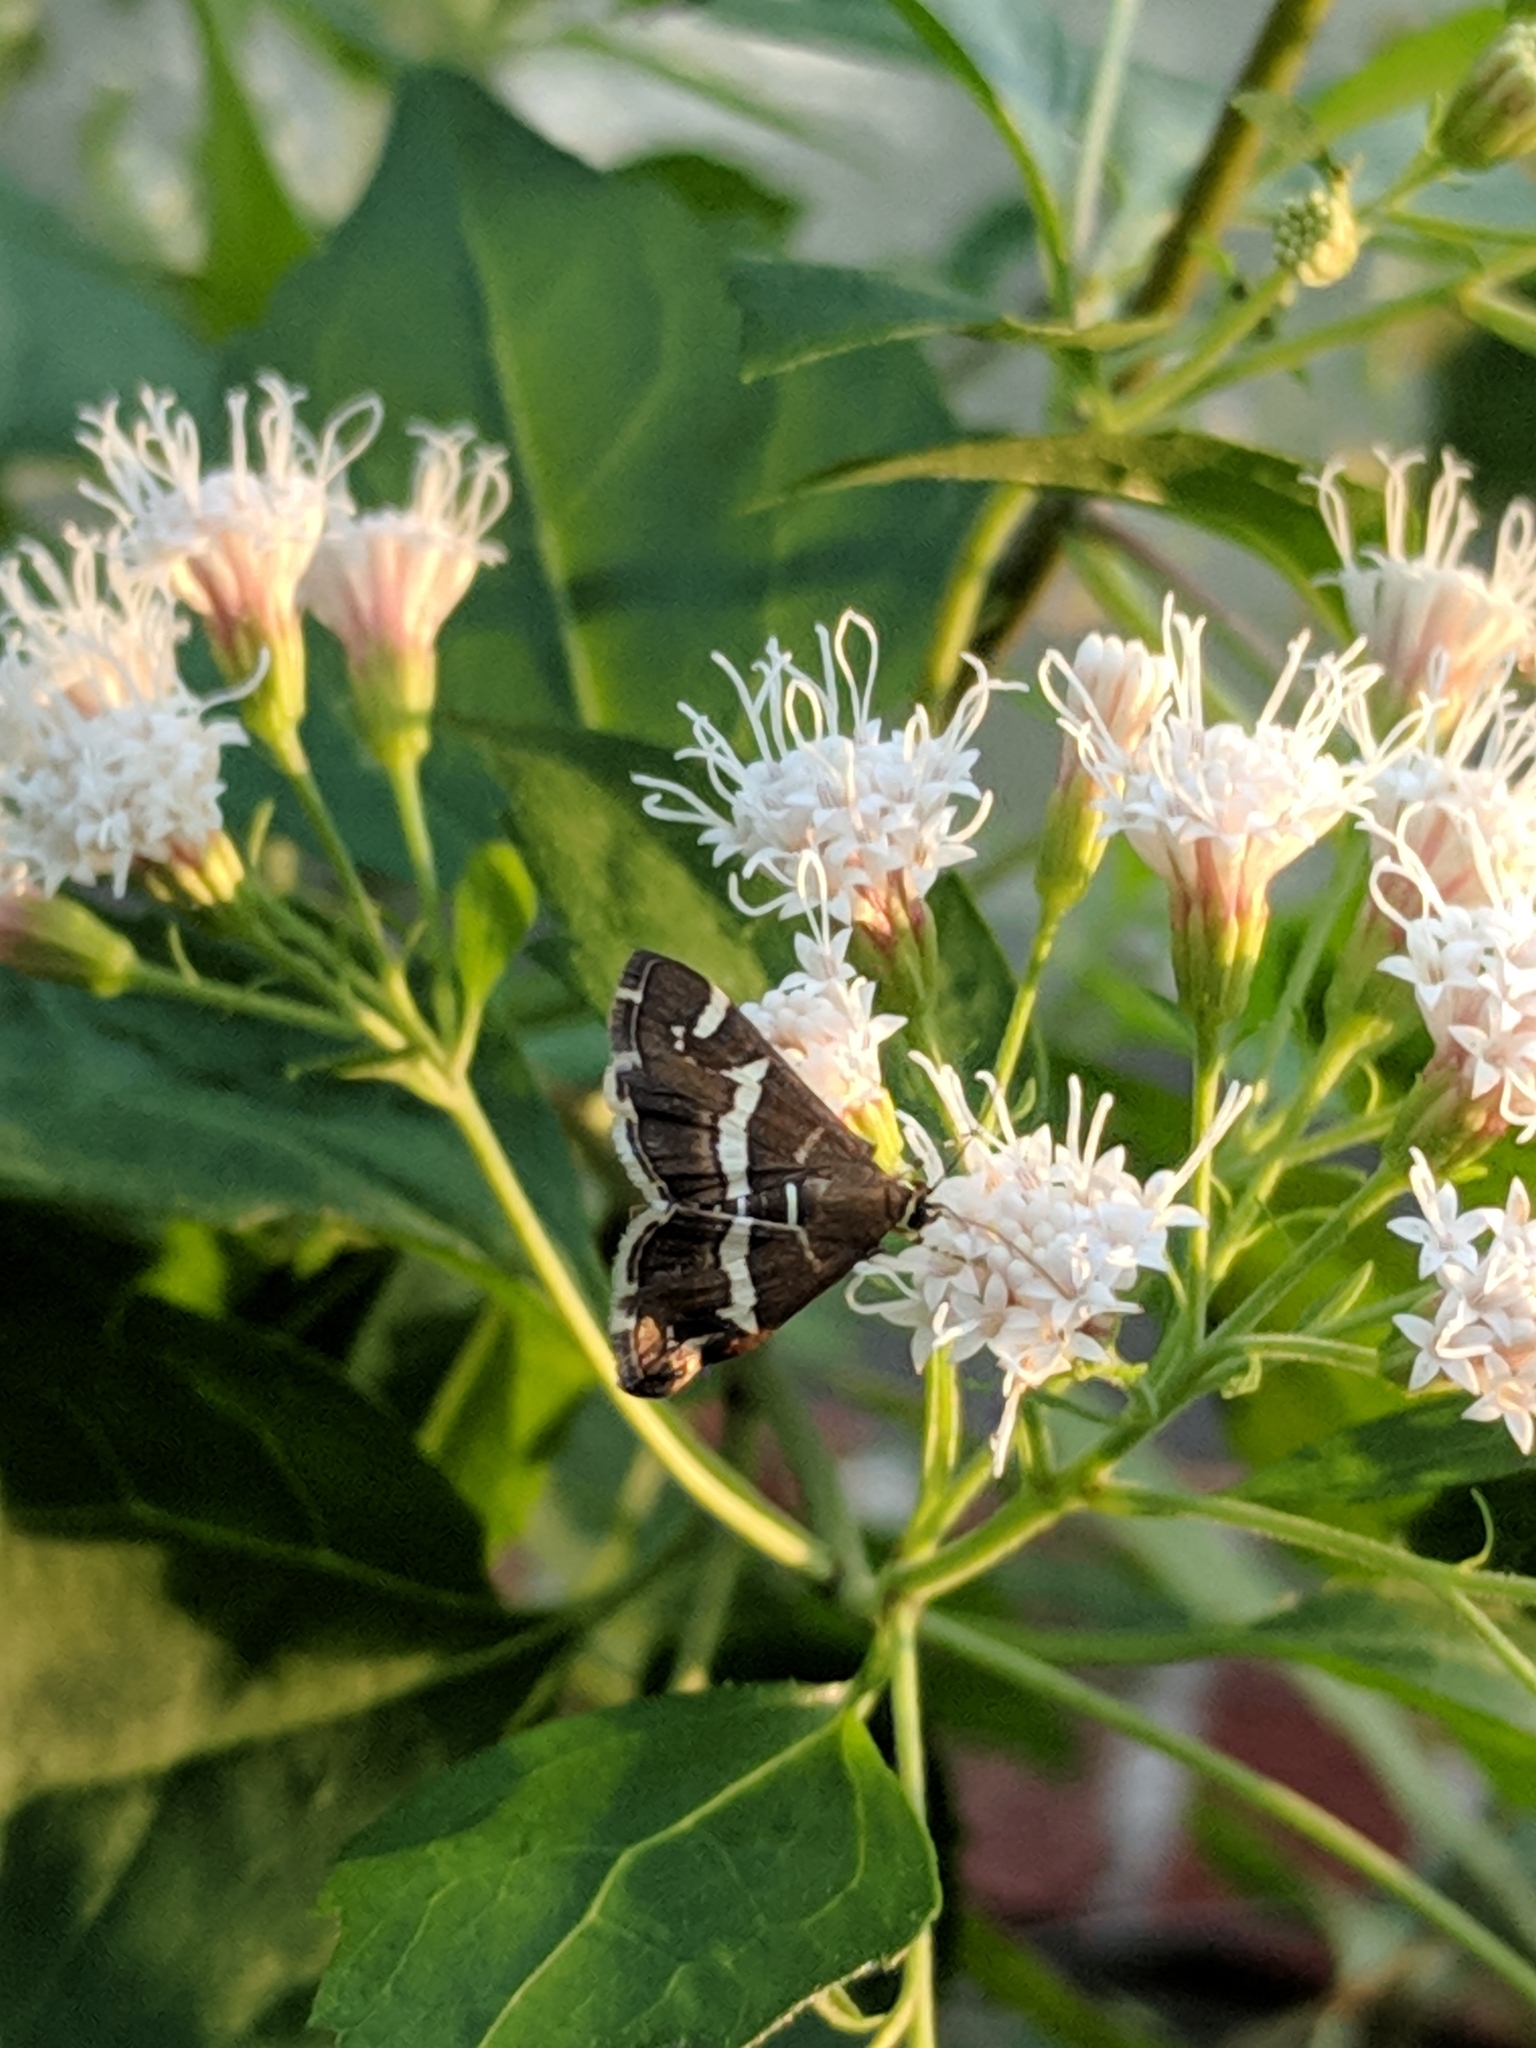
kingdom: Animalia
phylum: Arthropoda
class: Insecta
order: Lepidoptera
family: Crambidae
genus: Spoladea
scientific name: Spoladea recurvalis
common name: Beet webworm moth
